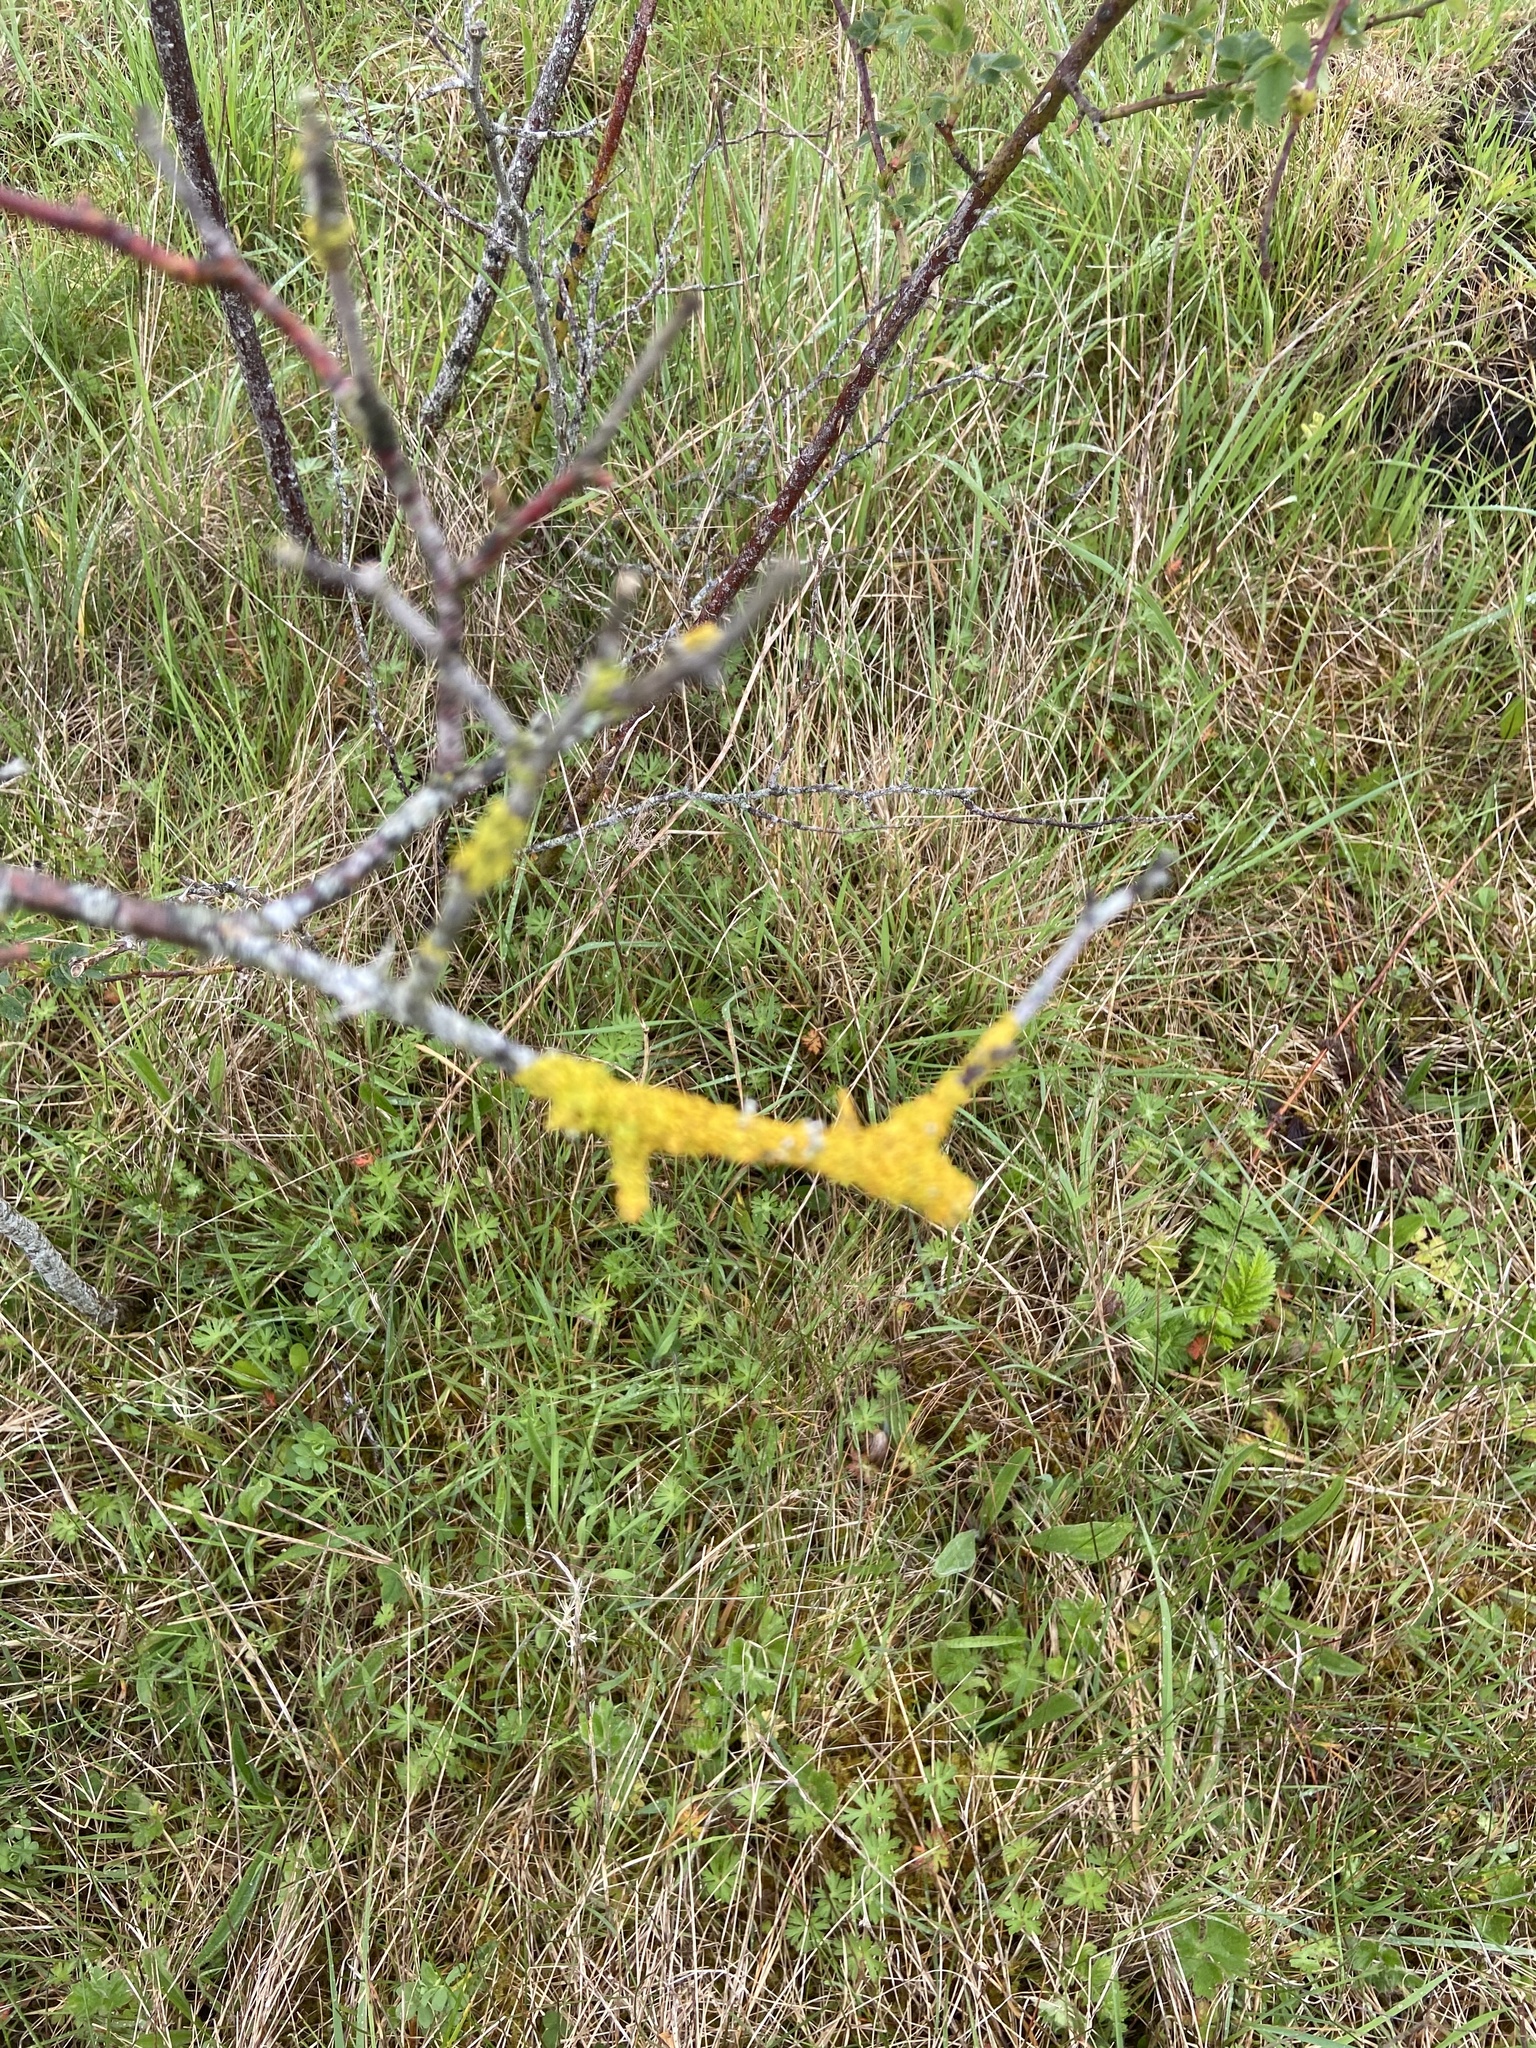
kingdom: Fungi
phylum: Ascomycota
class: Lecanoromycetes
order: Teloschistales
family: Teloschistaceae
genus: Xanthoria
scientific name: Xanthoria parietina
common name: Common orange lichen
